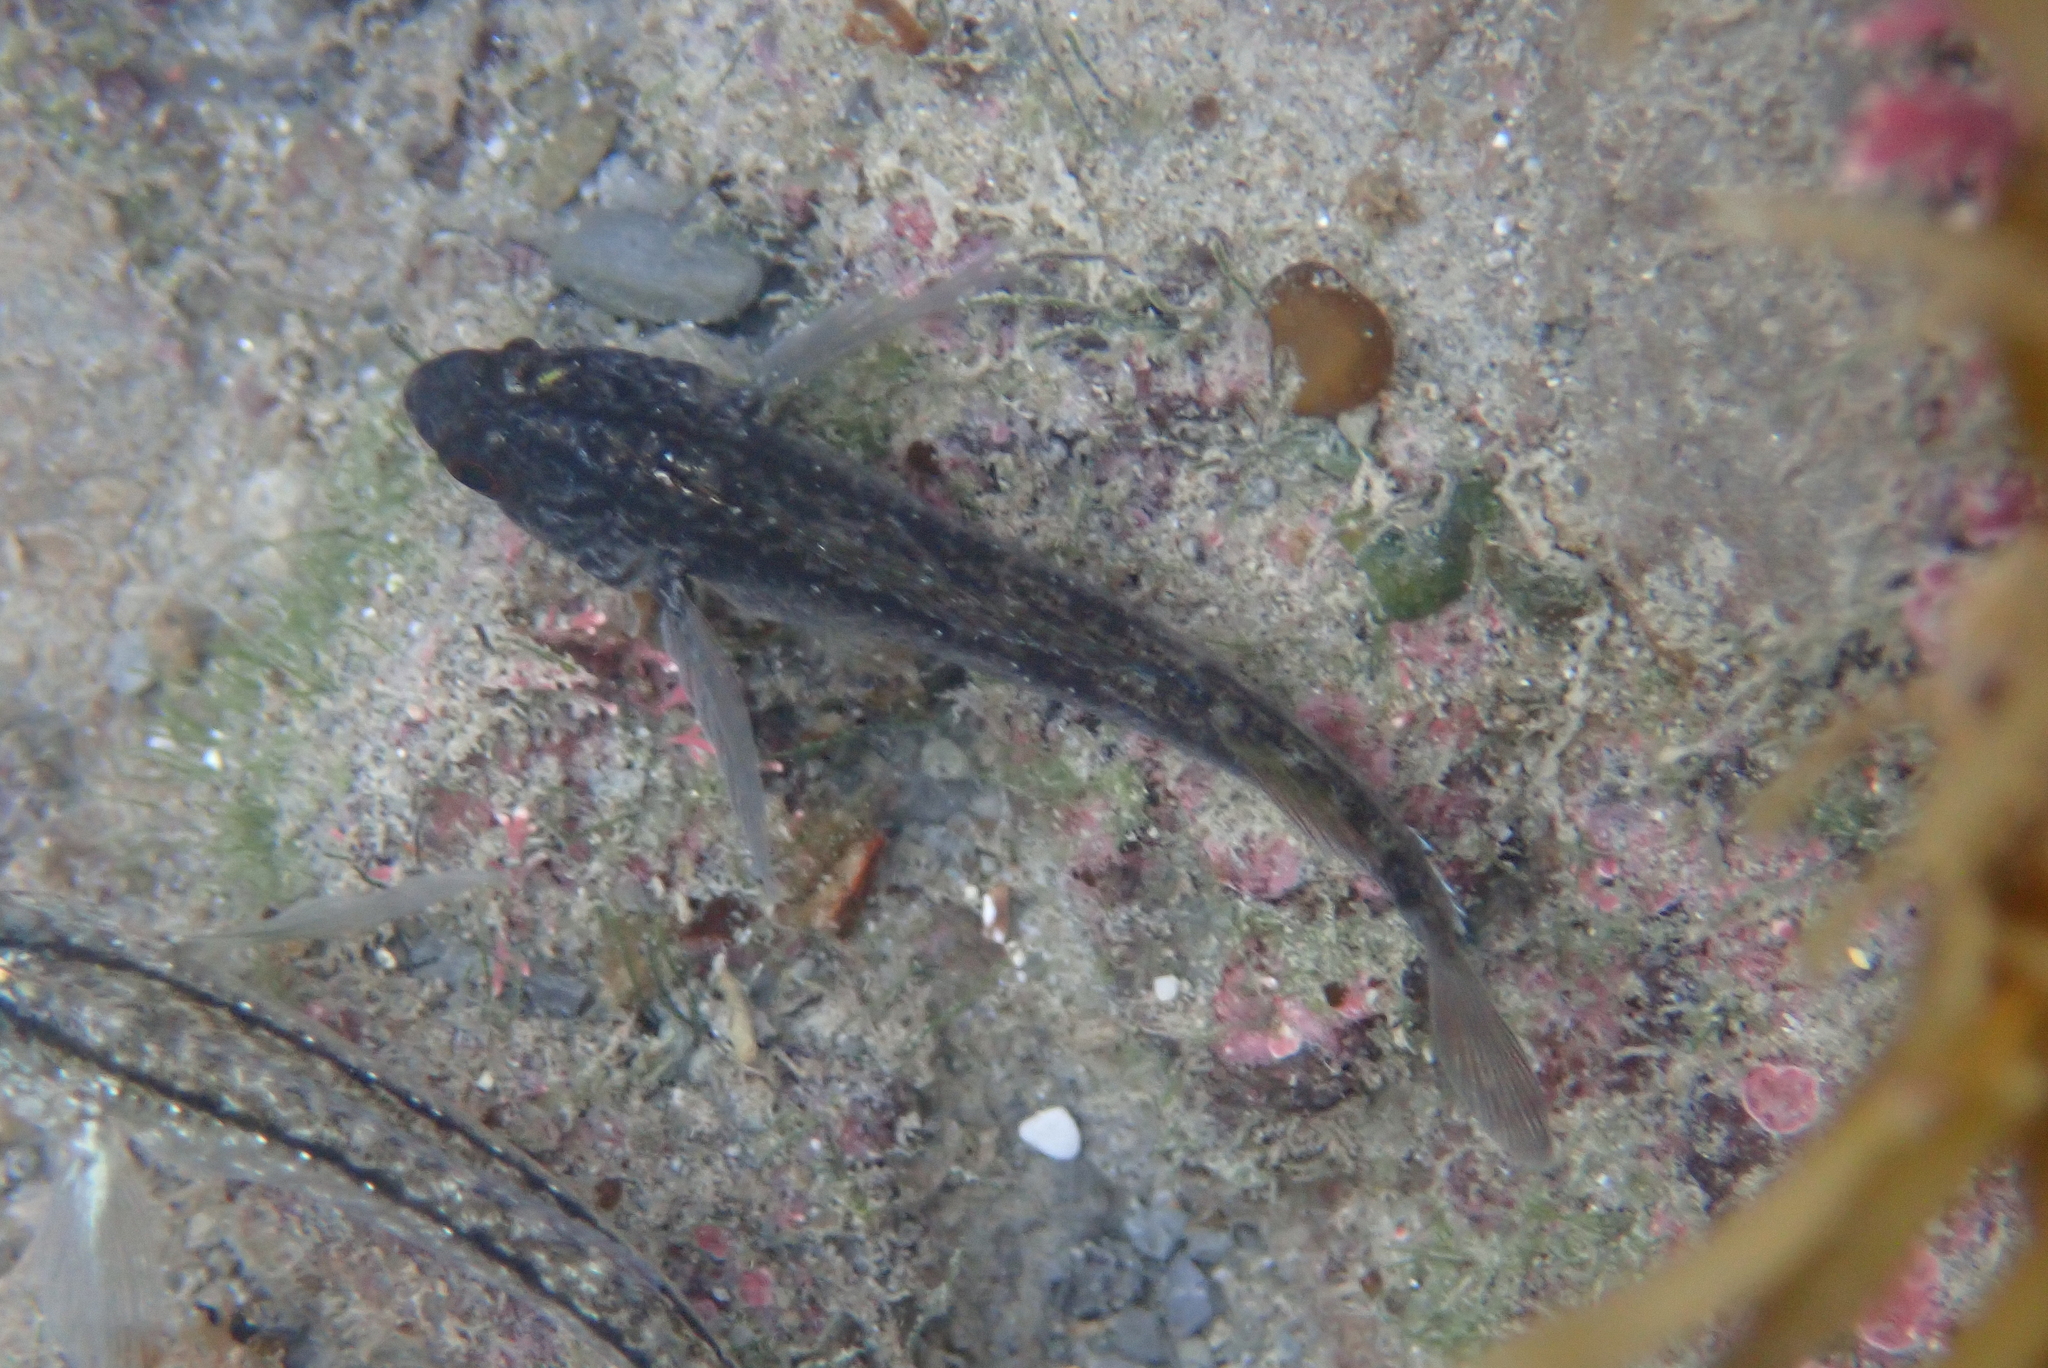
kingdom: Animalia
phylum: Chordata
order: Perciformes
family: Tripterygiidae
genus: Forsterygion
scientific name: Forsterygion lapillum
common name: Common triplefin
